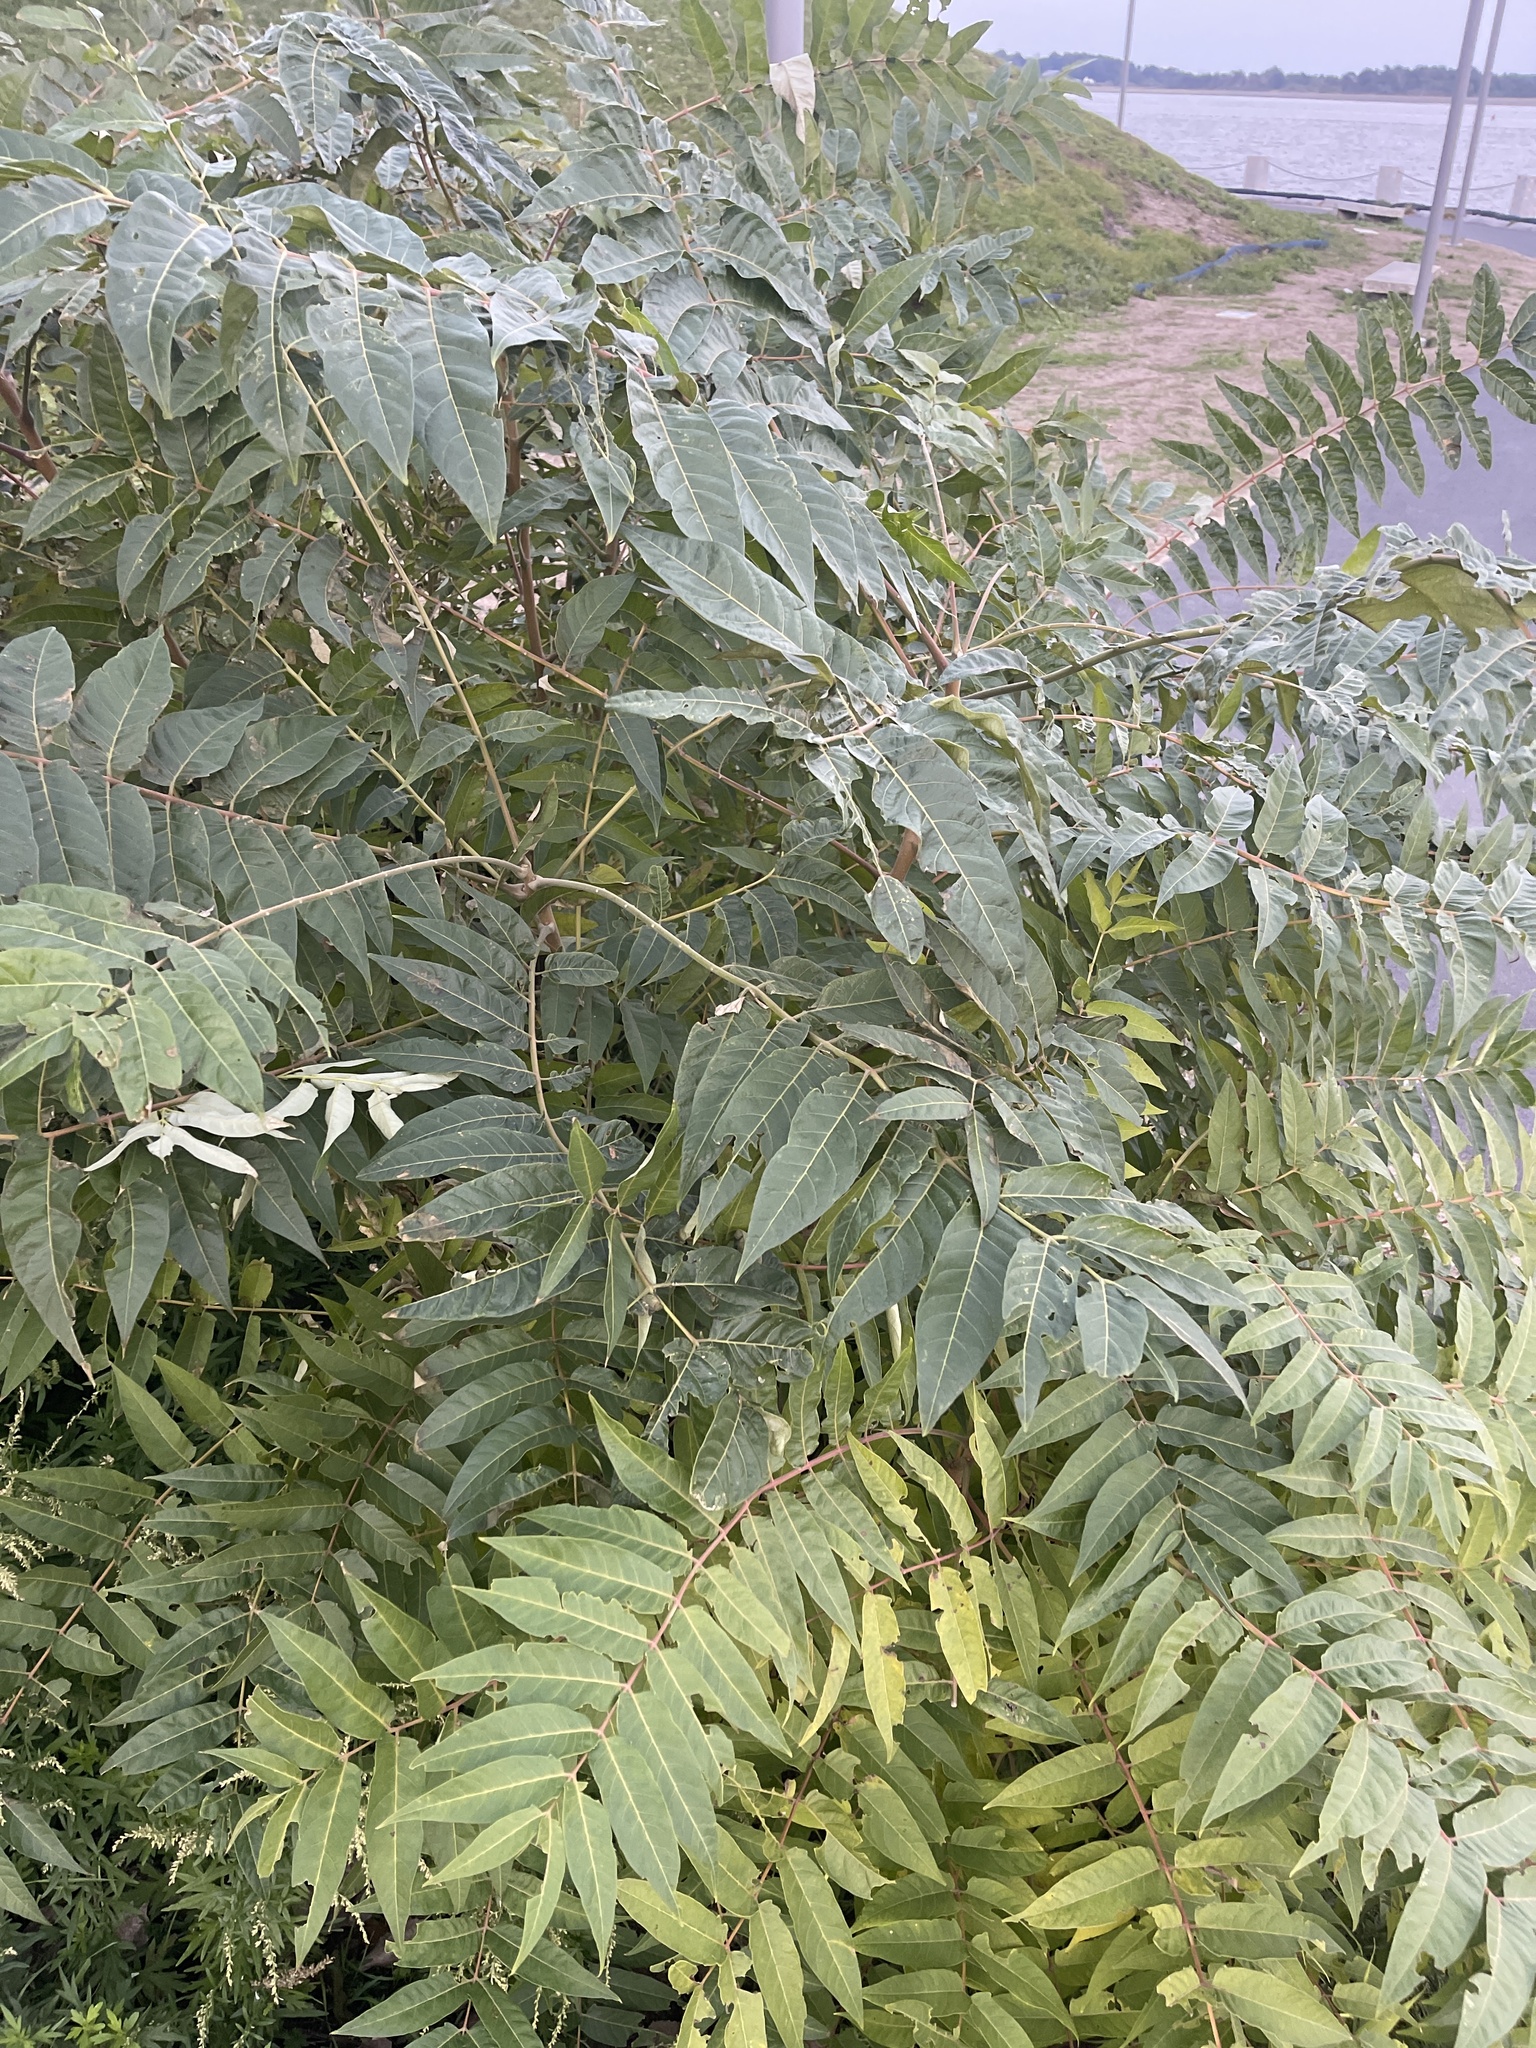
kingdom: Plantae
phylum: Tracheophyta
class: Magnoliopsida
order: Sapindales
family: Simaroubaceae
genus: Ailanthus
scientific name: Ailanthus altissima
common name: Tree-of-heaven
